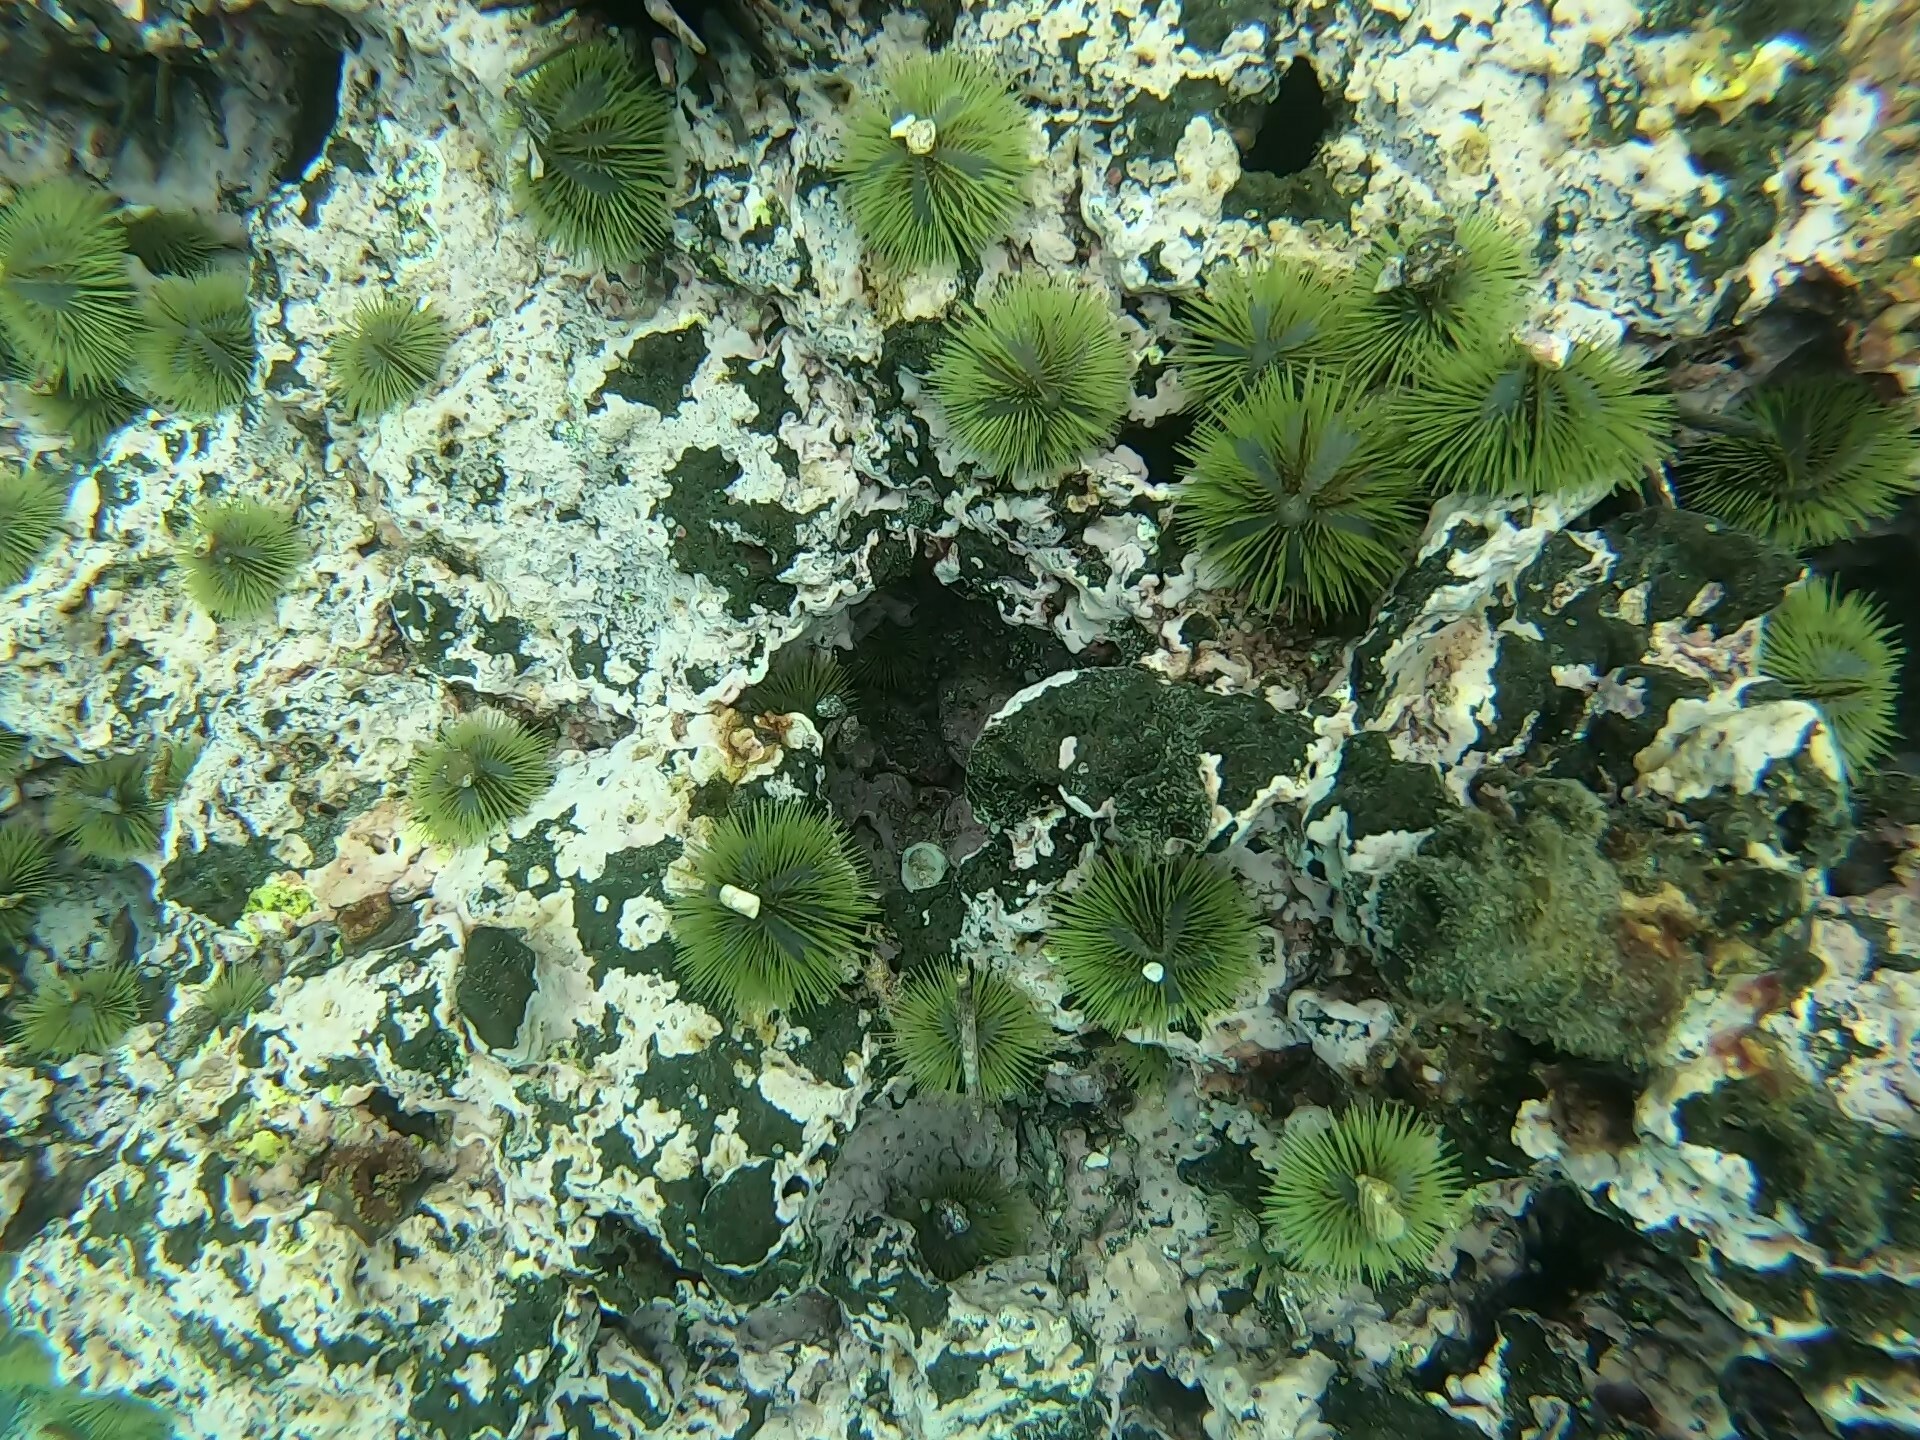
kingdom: Animalia
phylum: Echinodermata
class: Echinoidea
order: Camarodonta
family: Toxopneustidae
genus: Lytechinus
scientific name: Lytechinus semituberculatus
